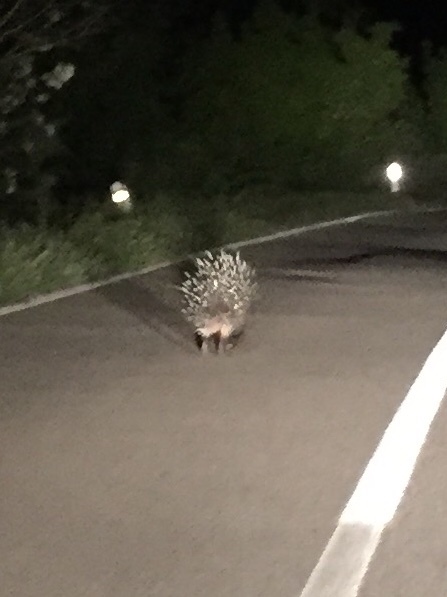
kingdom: Animalia
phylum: Chordata
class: Mammalia
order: Rodentia
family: Hystricidae
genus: Hystrix
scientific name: Hystrix cristata
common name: Crested porcupine
